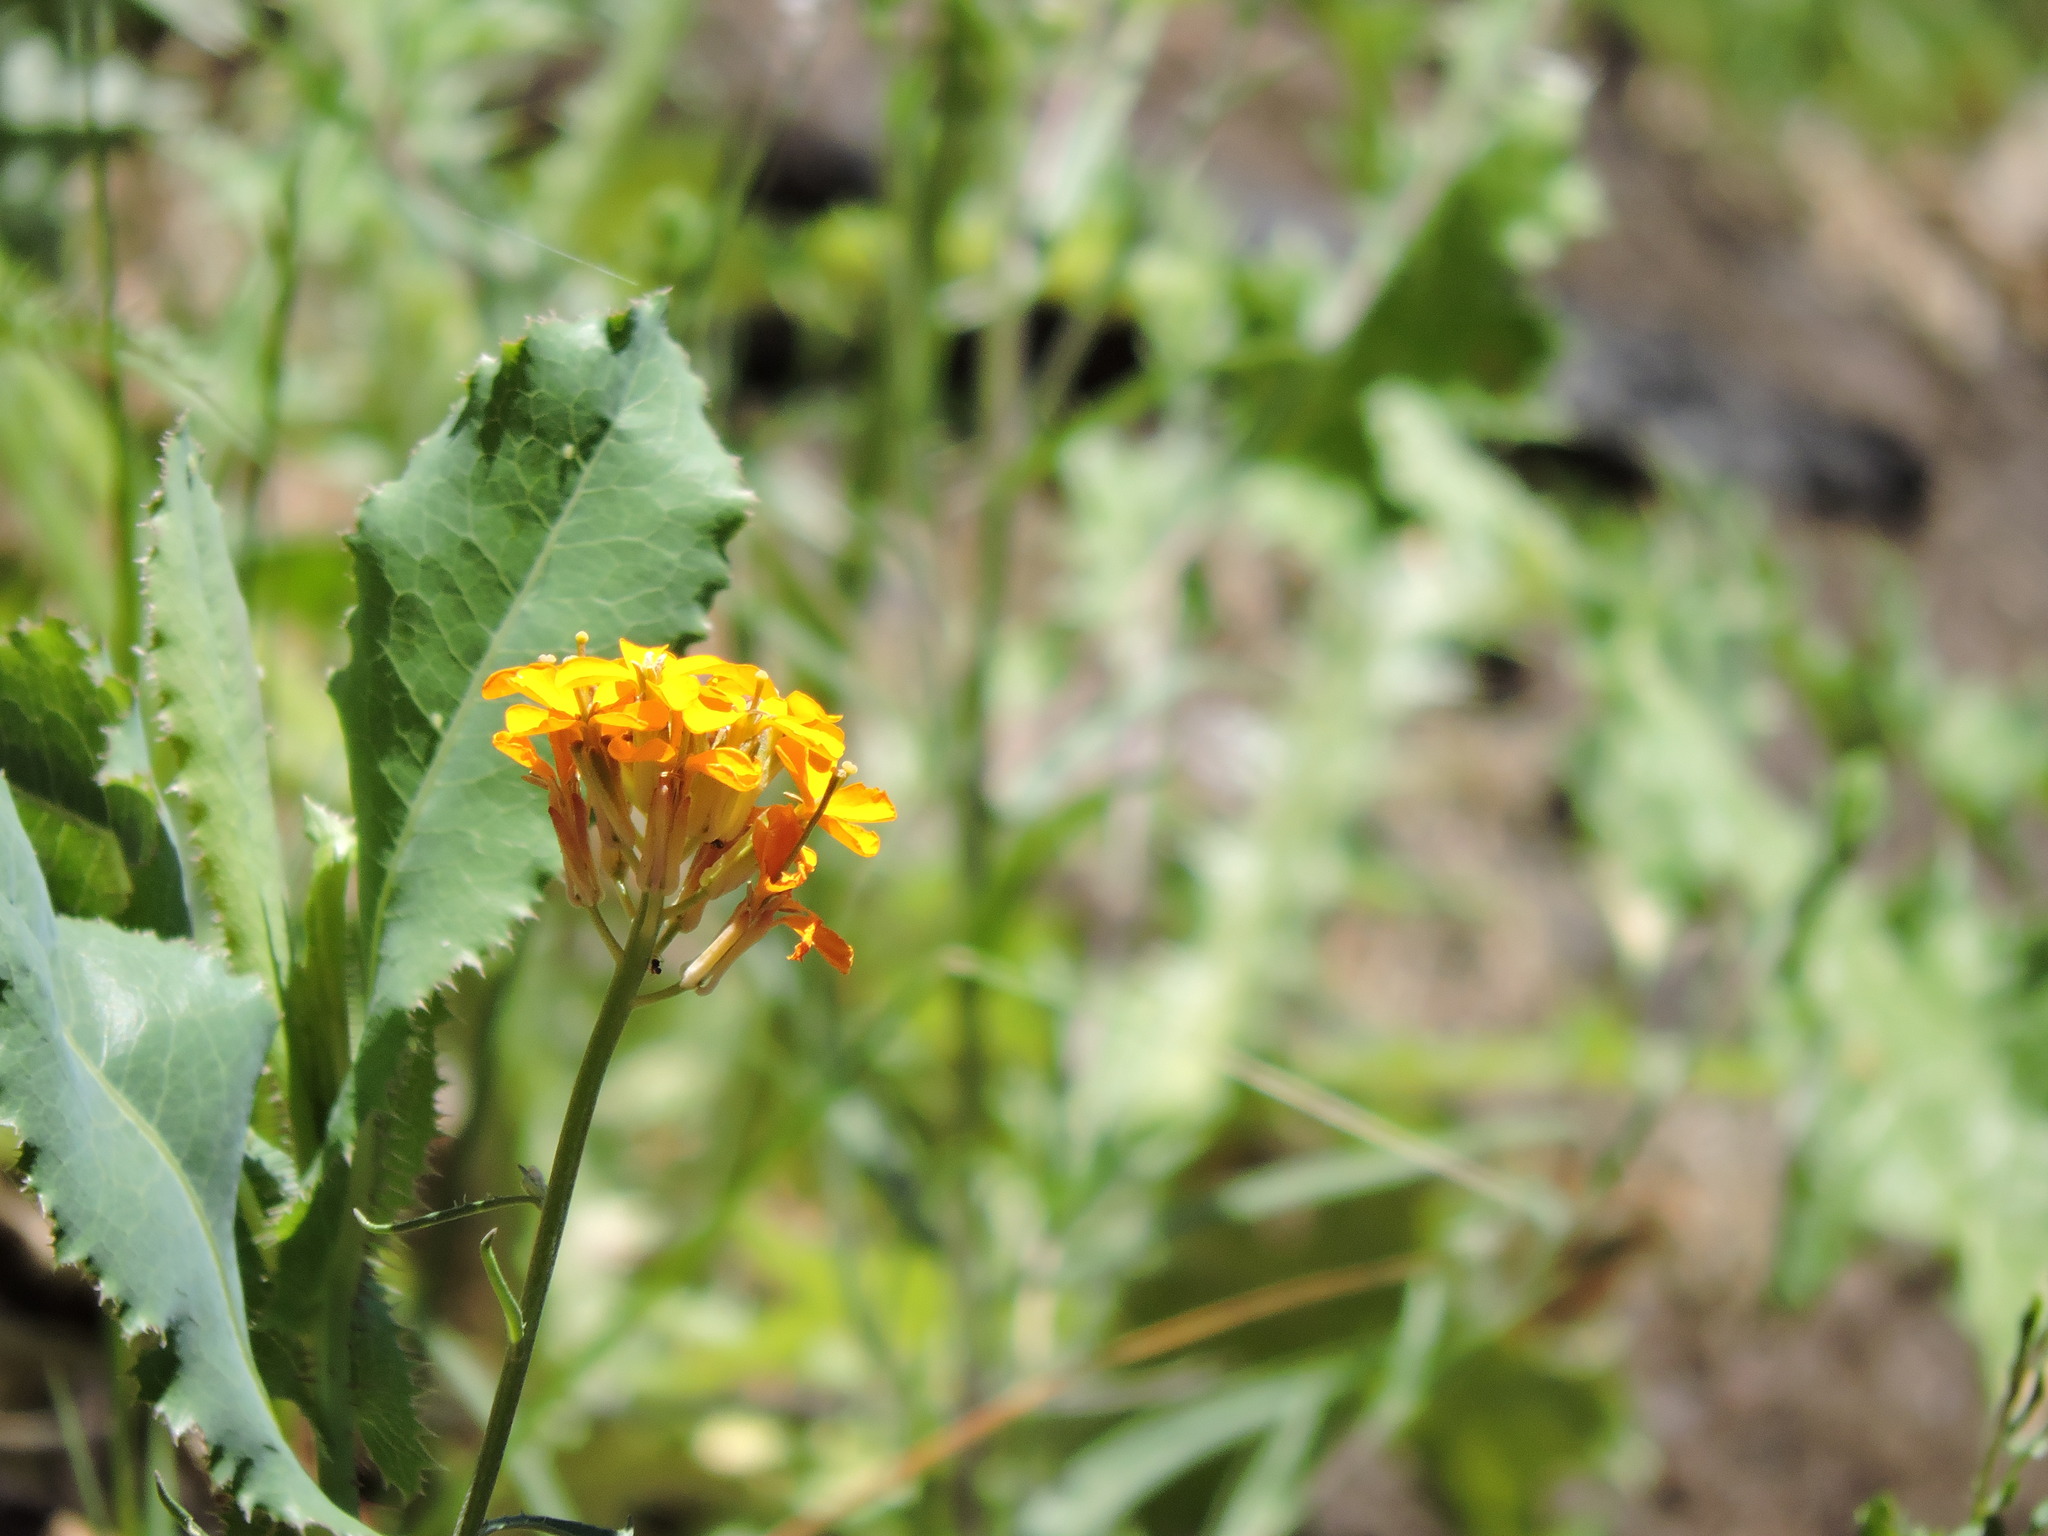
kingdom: Plantae
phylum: Tracheophyta
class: Magnoliopsida
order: Brassicales
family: Brassicaceae
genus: Erysimum
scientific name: Erysimum capitatum
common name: Western wallflower
